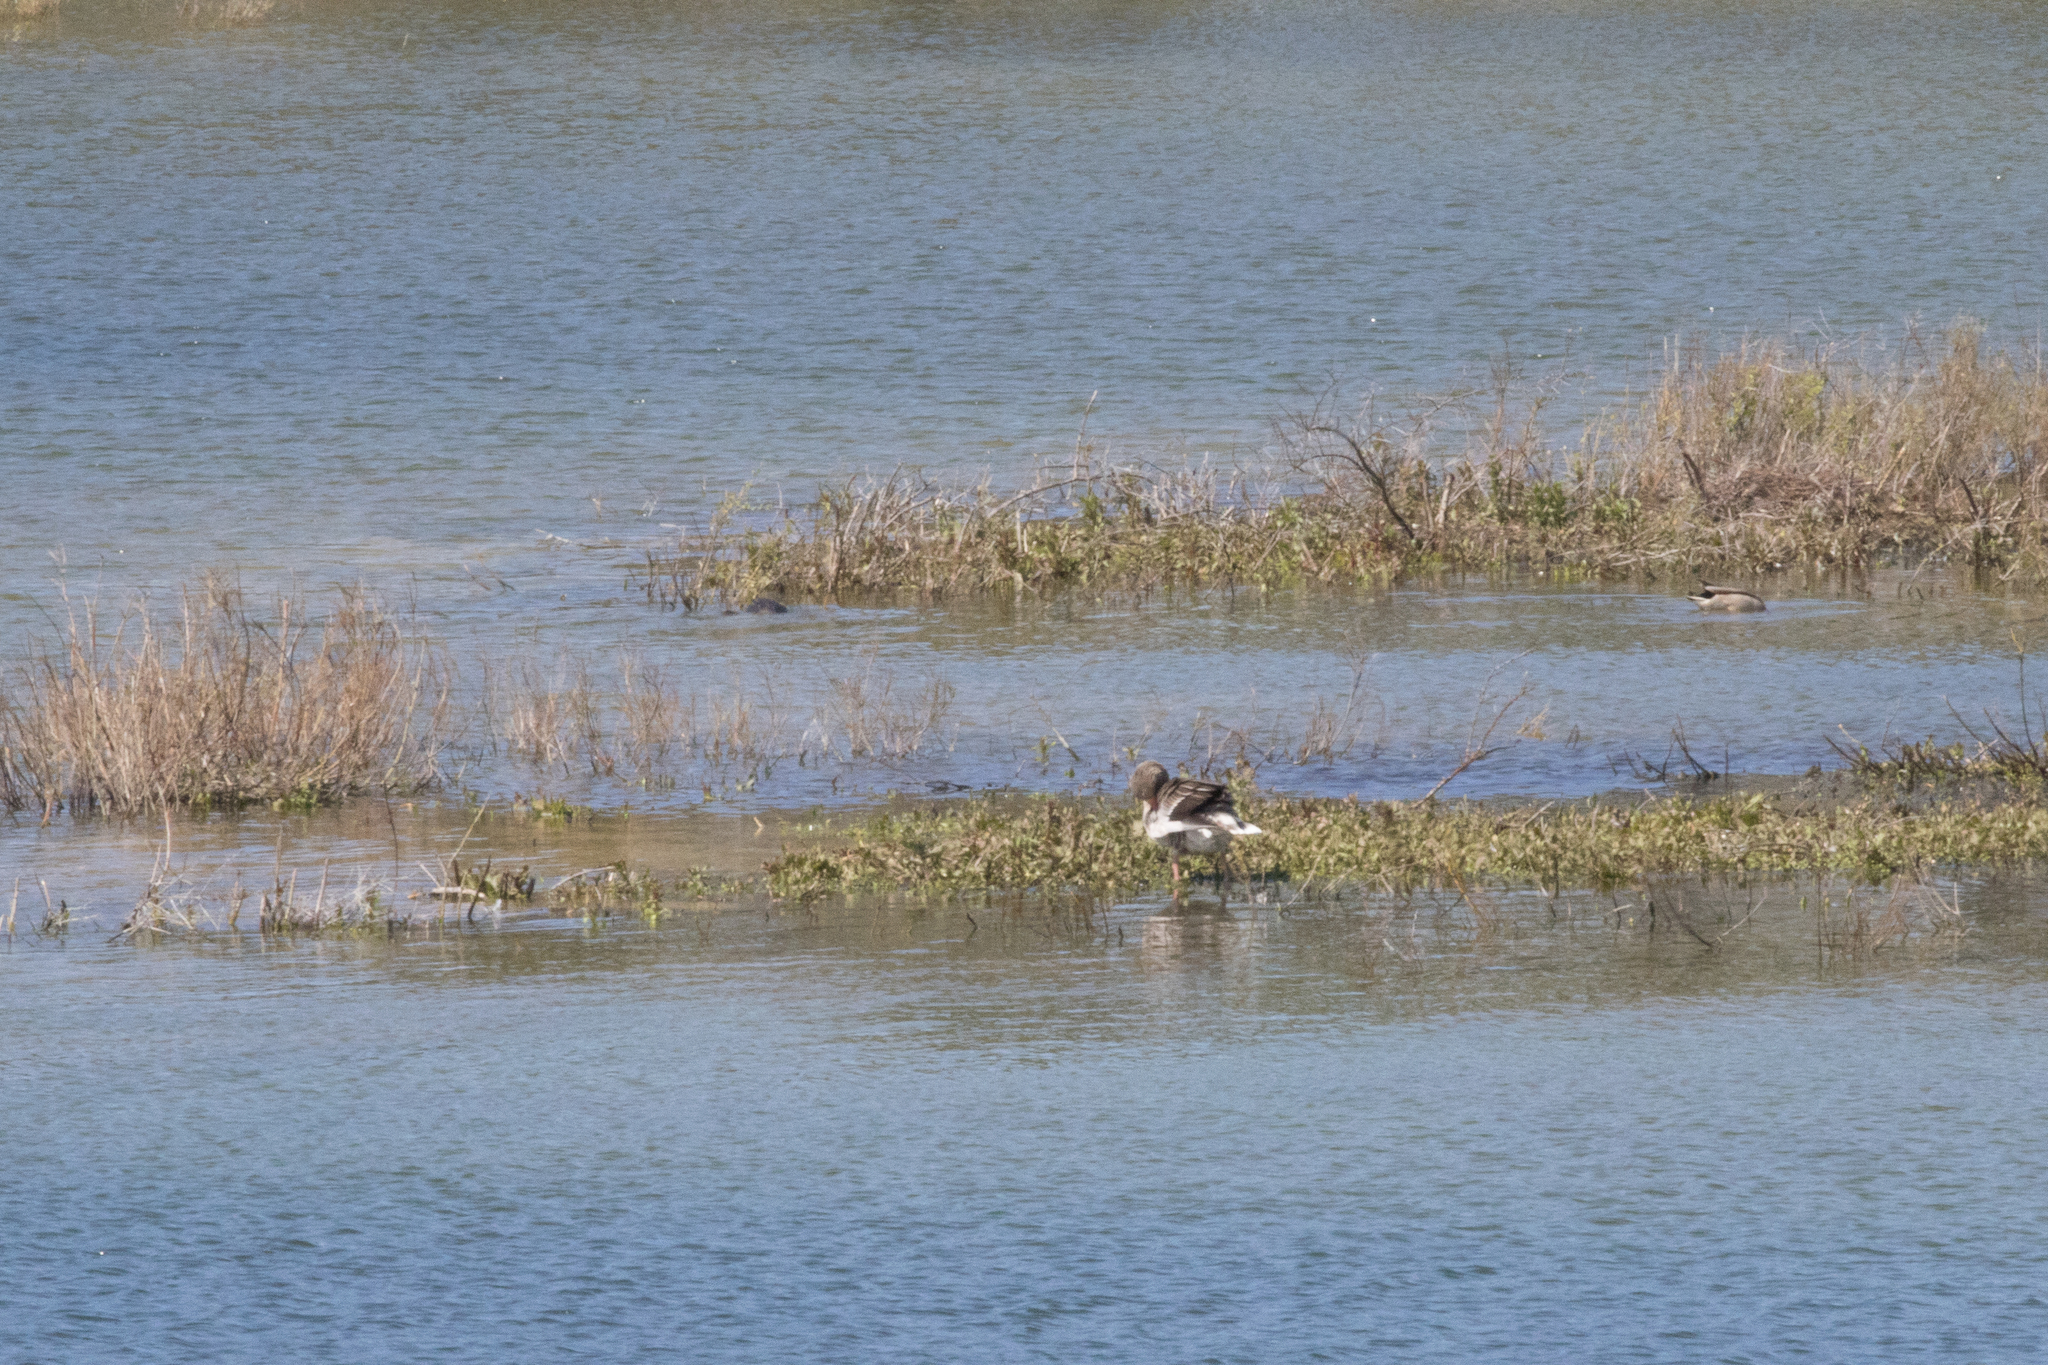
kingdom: Animalia
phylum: Chordata
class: Aves
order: Anseriformes
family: Anatidae
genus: Anser
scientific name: Anser anser
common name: Greylag goose
